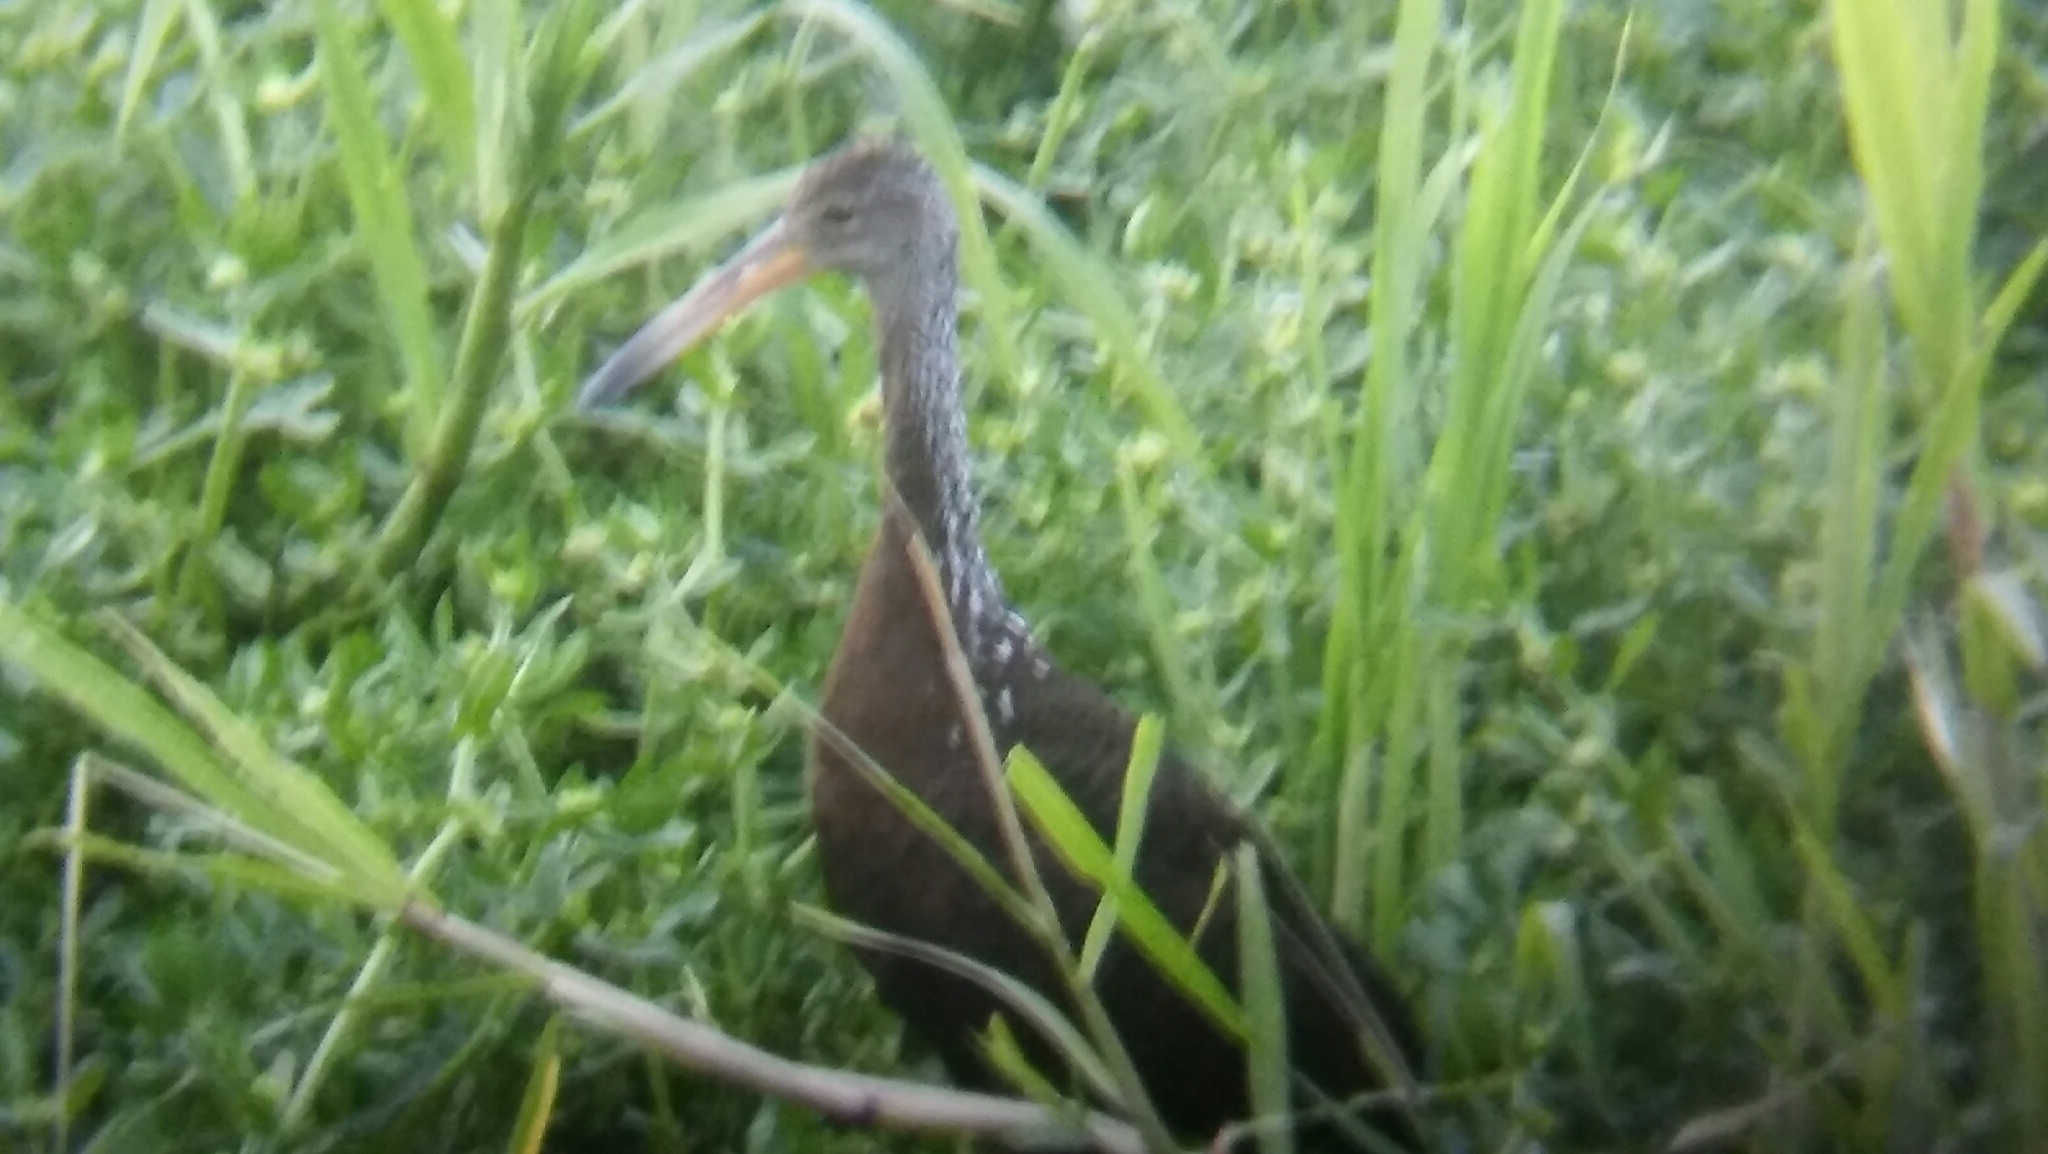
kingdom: Animalia
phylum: Chordata
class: Aves
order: Gruiformes
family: Aramidae
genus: Aramus
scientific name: Aramus guarauna
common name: Limpkin
